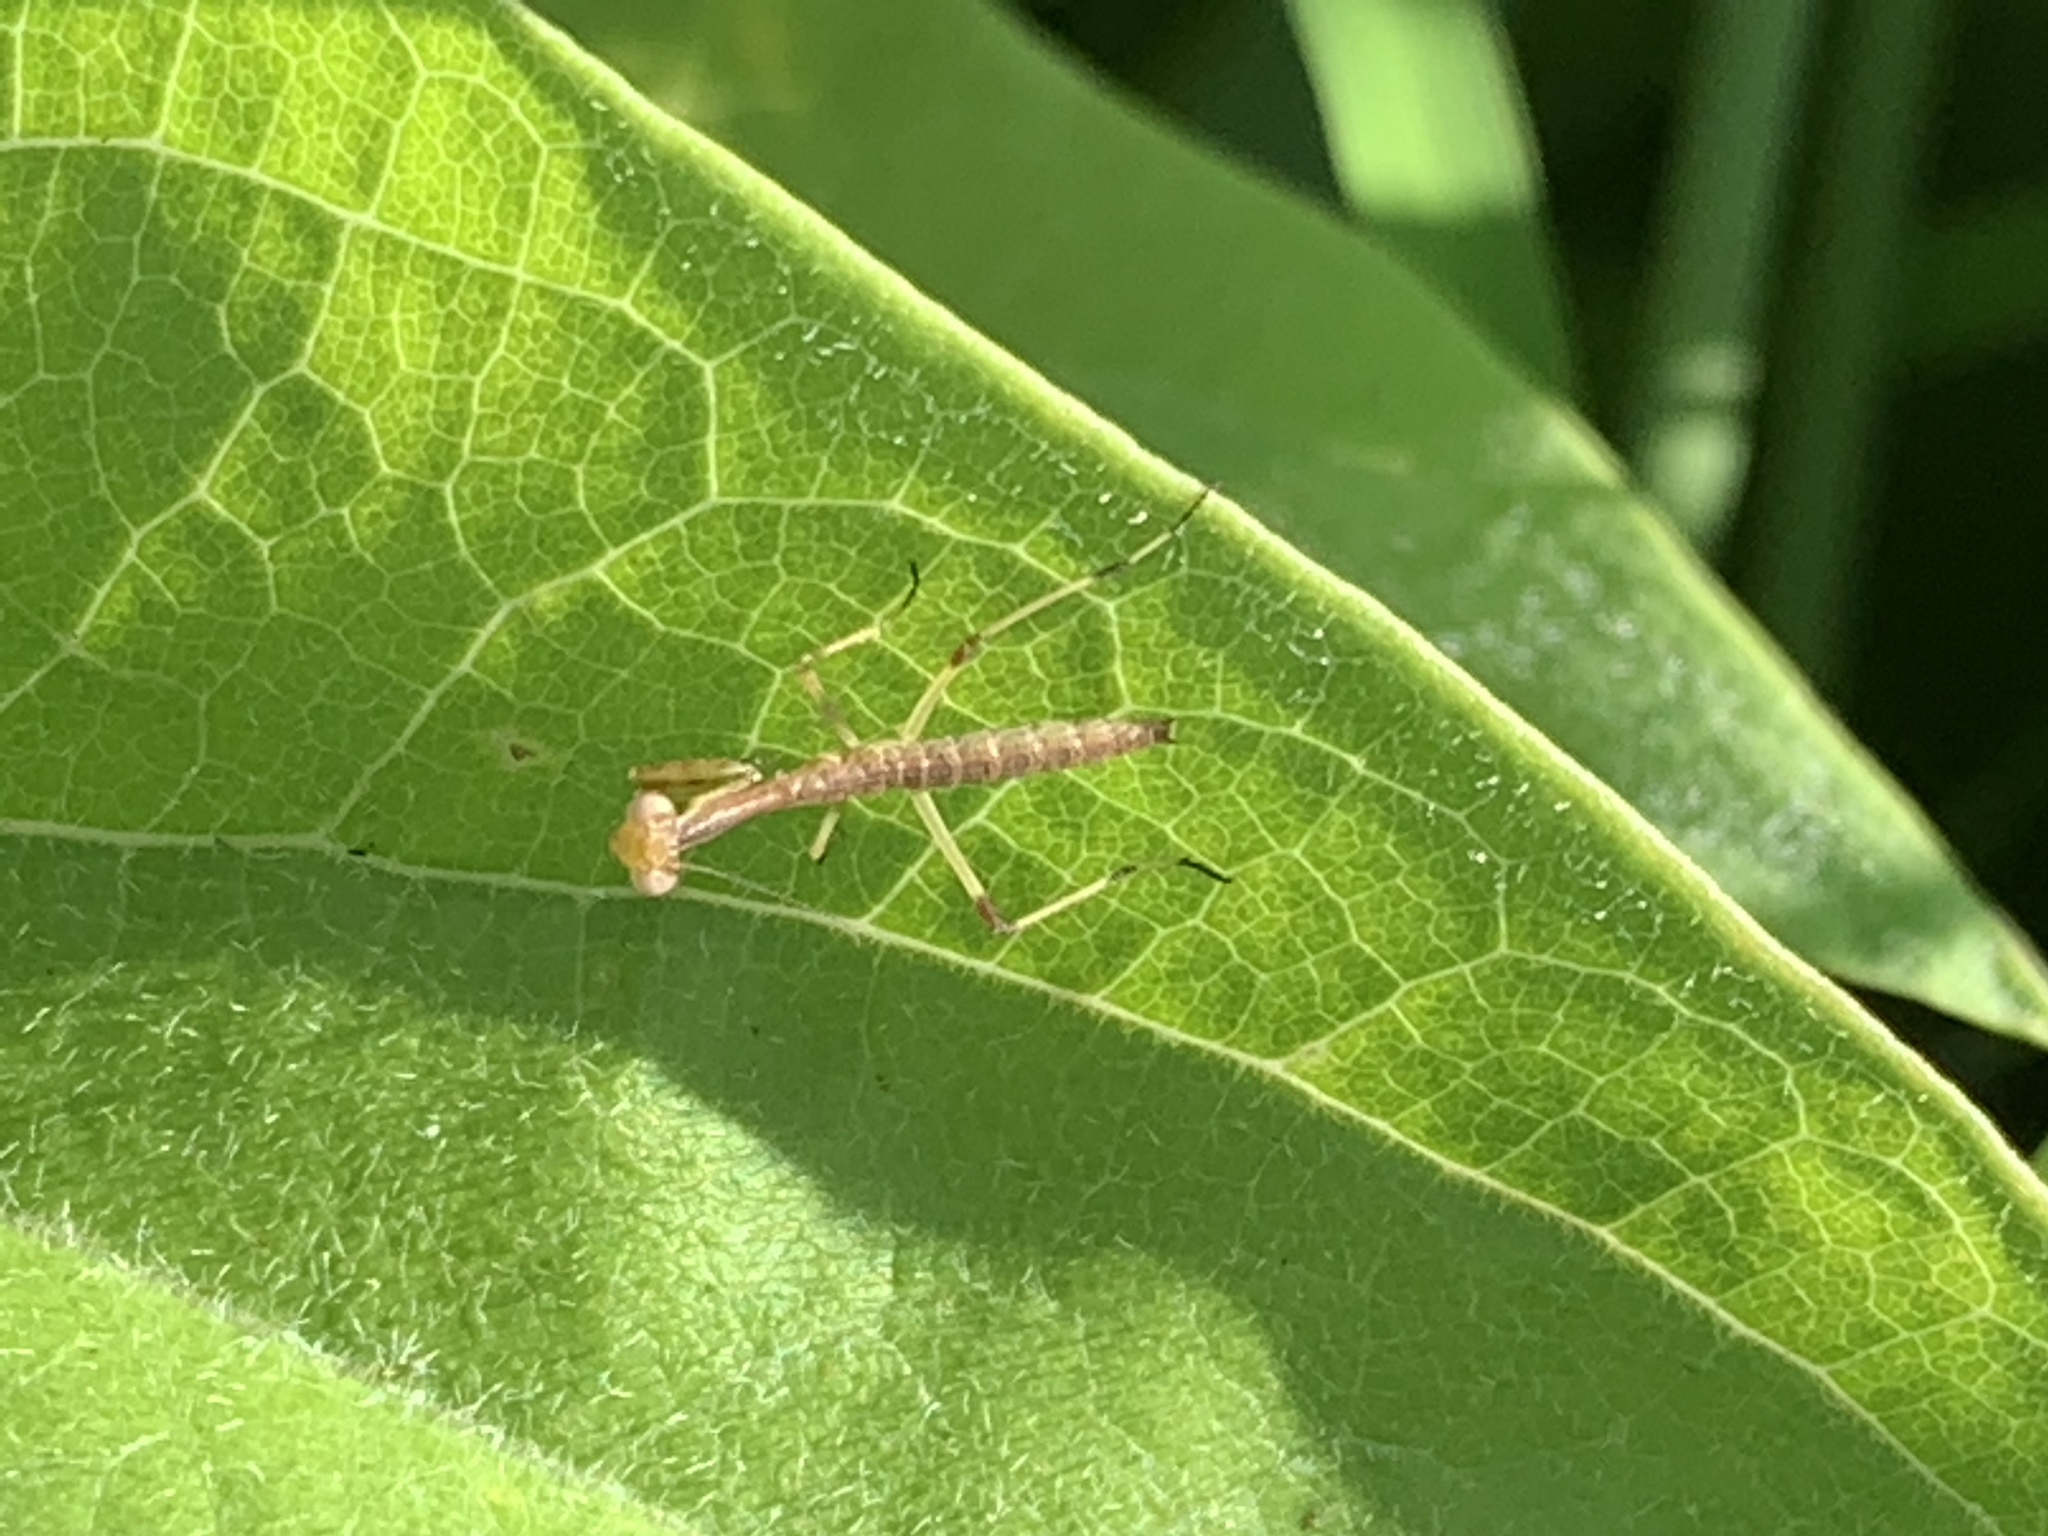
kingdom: Animalia
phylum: Arthropoda
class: Insecta
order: Mantodea
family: Mantidae
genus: Stagmomantis
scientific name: Stagmomantis carolina
